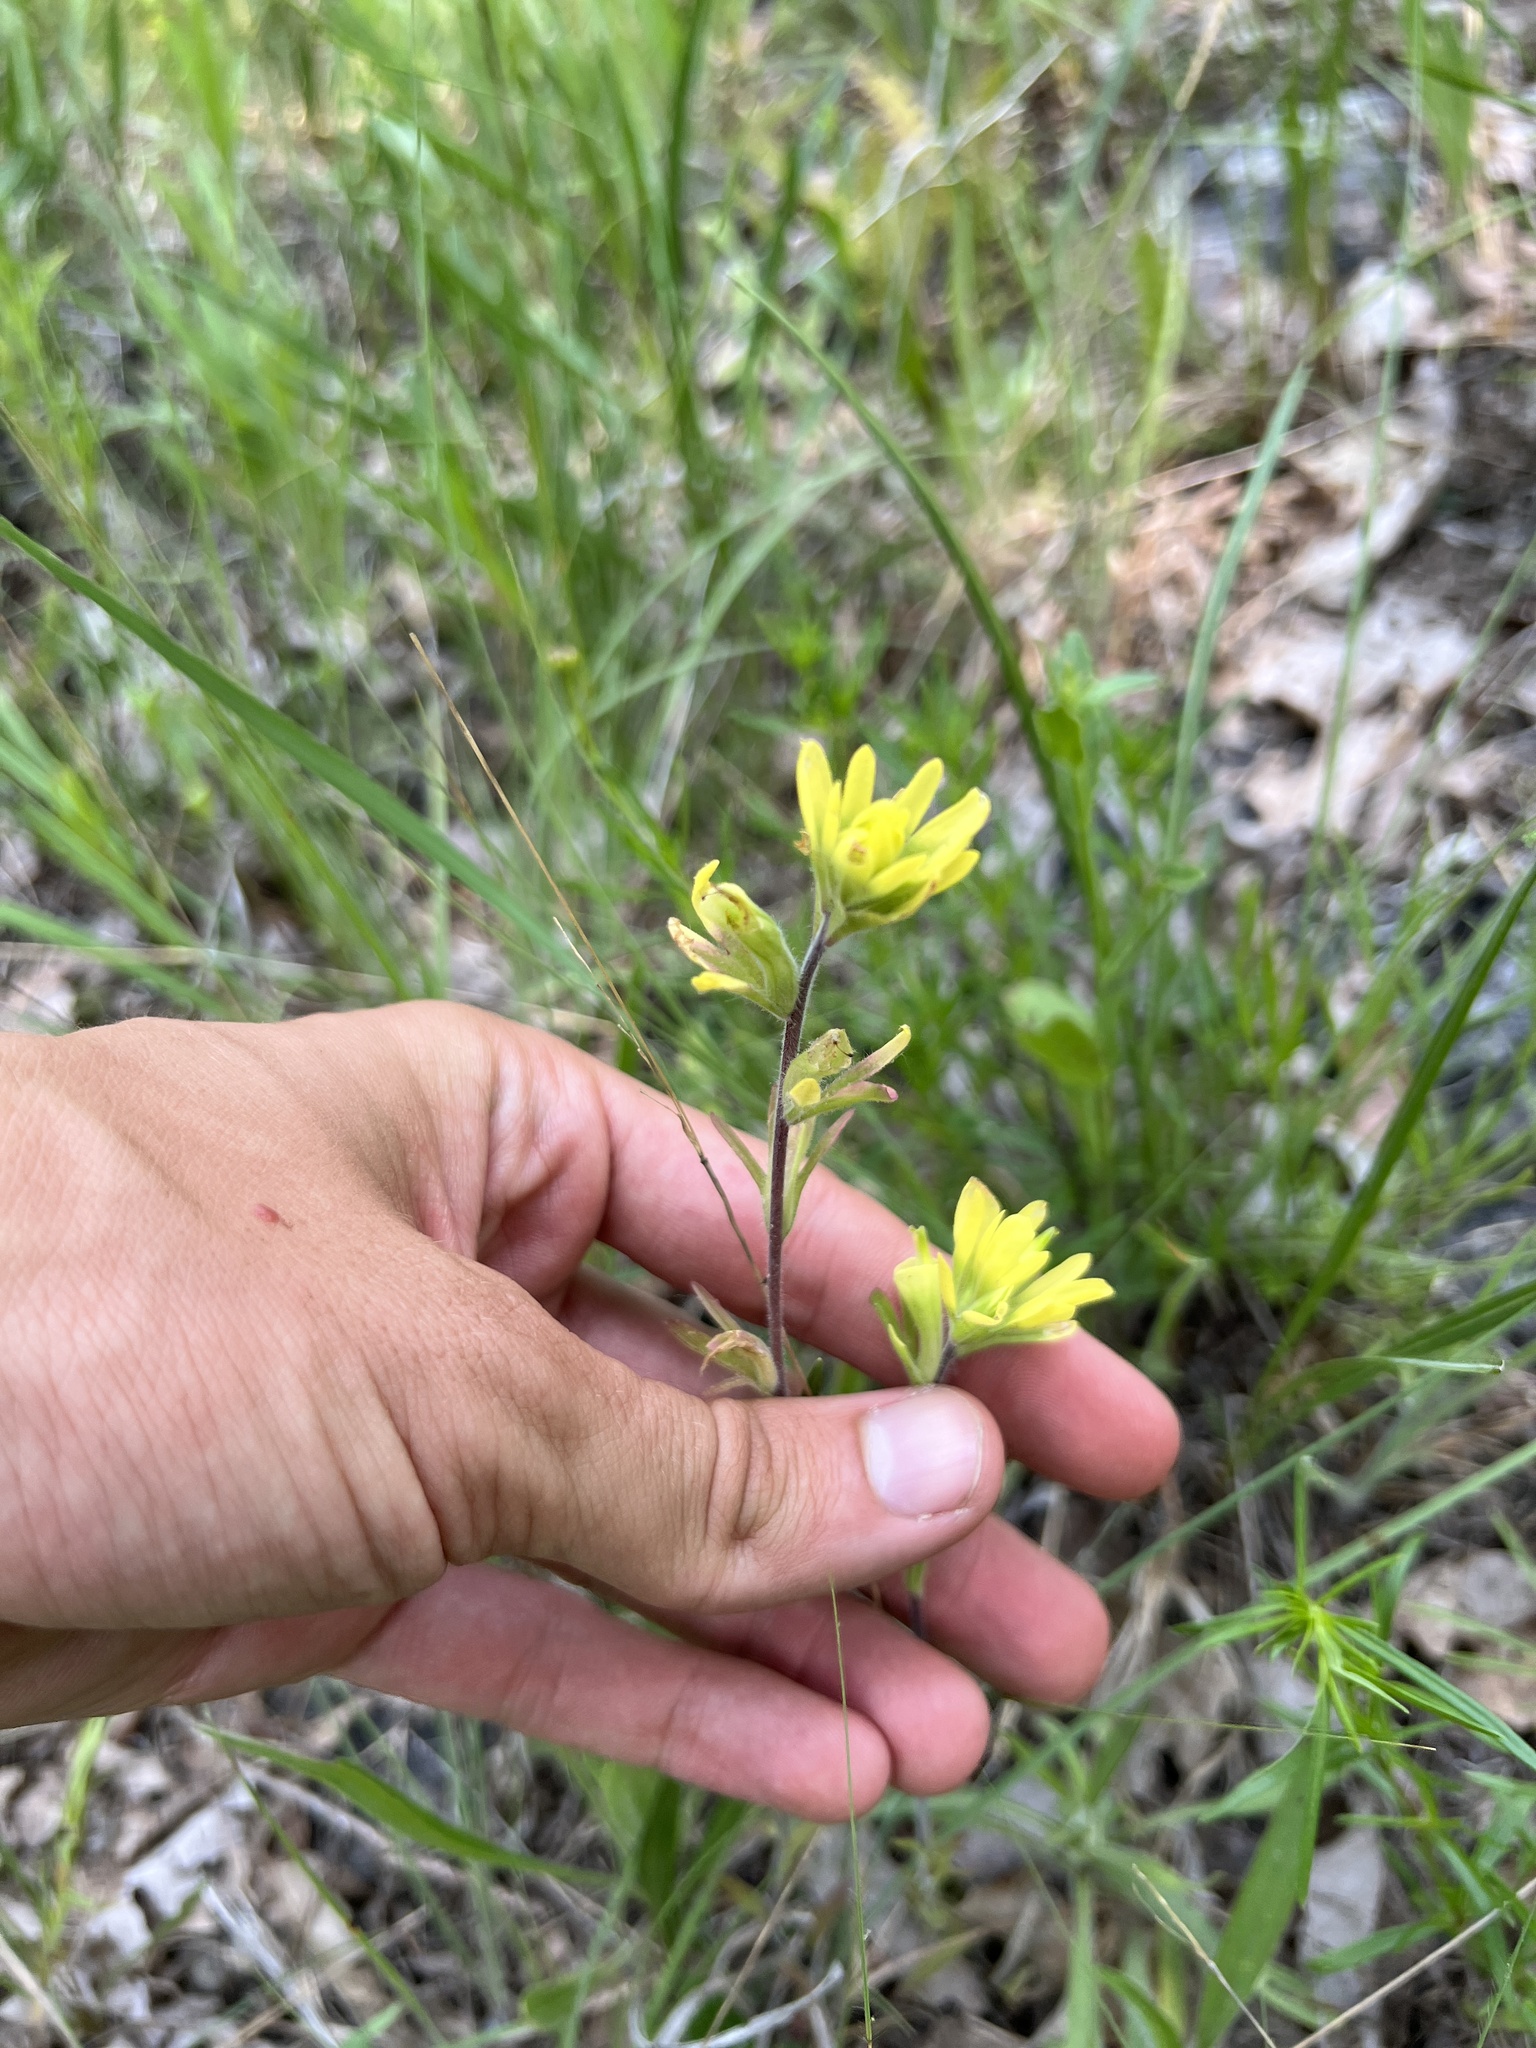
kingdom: Plantae
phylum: Tracheophyta
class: Magnoliopsida
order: Lamiales
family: Orobanchaceae
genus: Castilleja
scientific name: Castilleja coccinea
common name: Scarlet paintbrush
